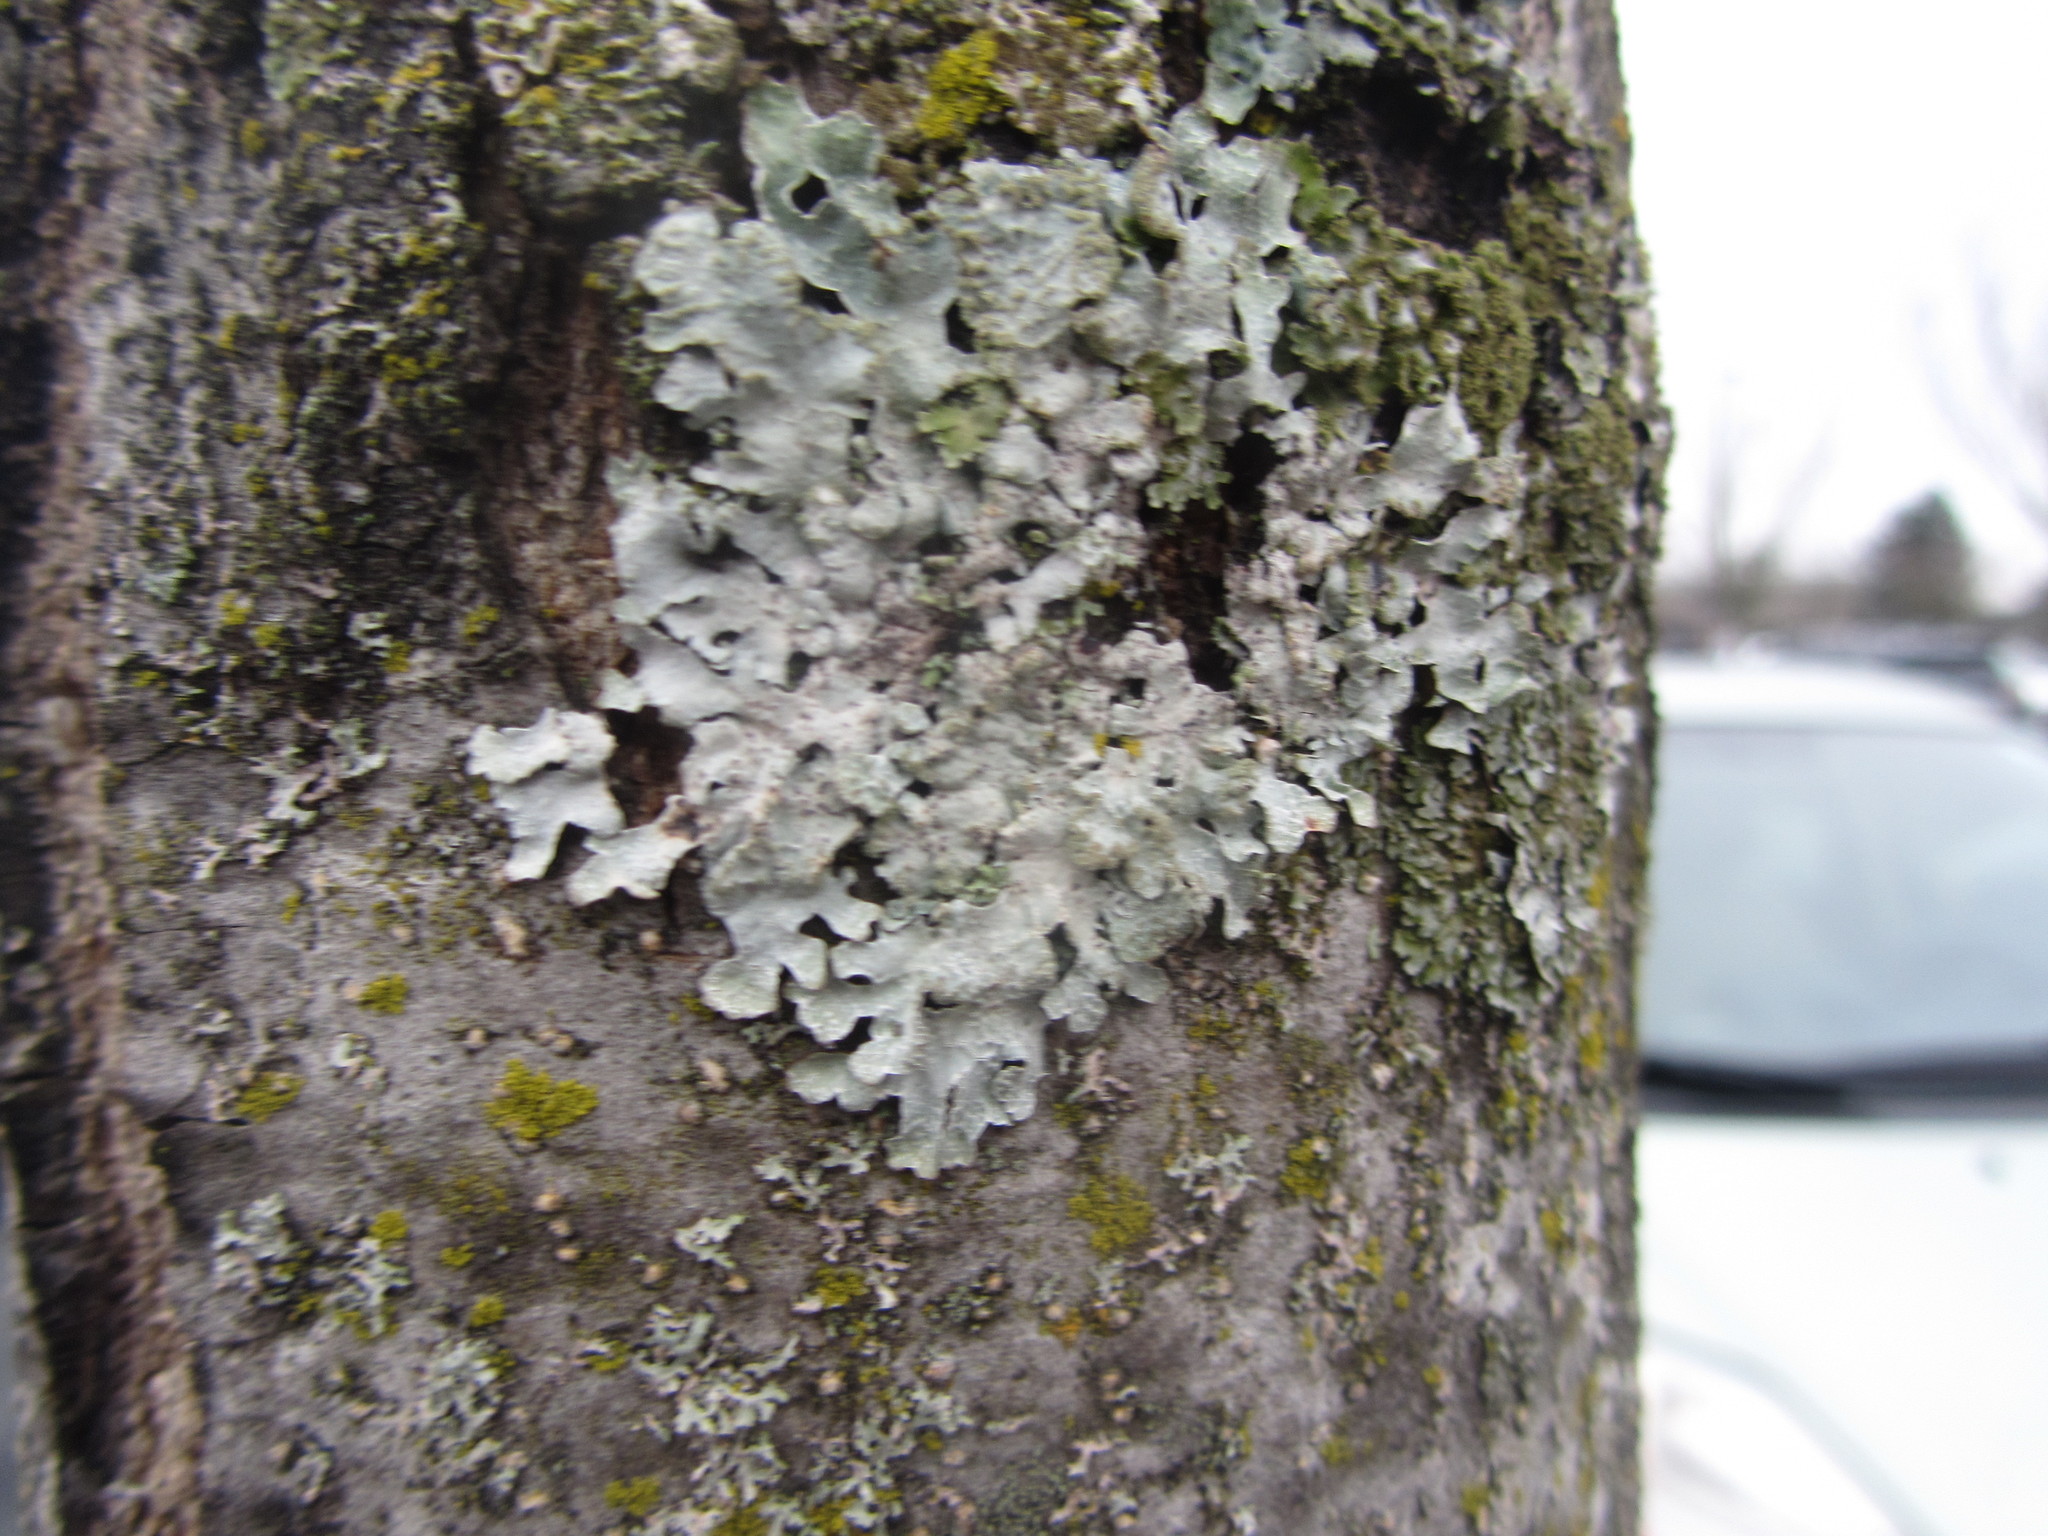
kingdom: Fungi
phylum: Ascomycota
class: Lecanoromycetes
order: Lecanorales
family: Parmeliaceae
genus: Parmelia
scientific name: Parmelia sulcata
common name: Netted shield lichen
